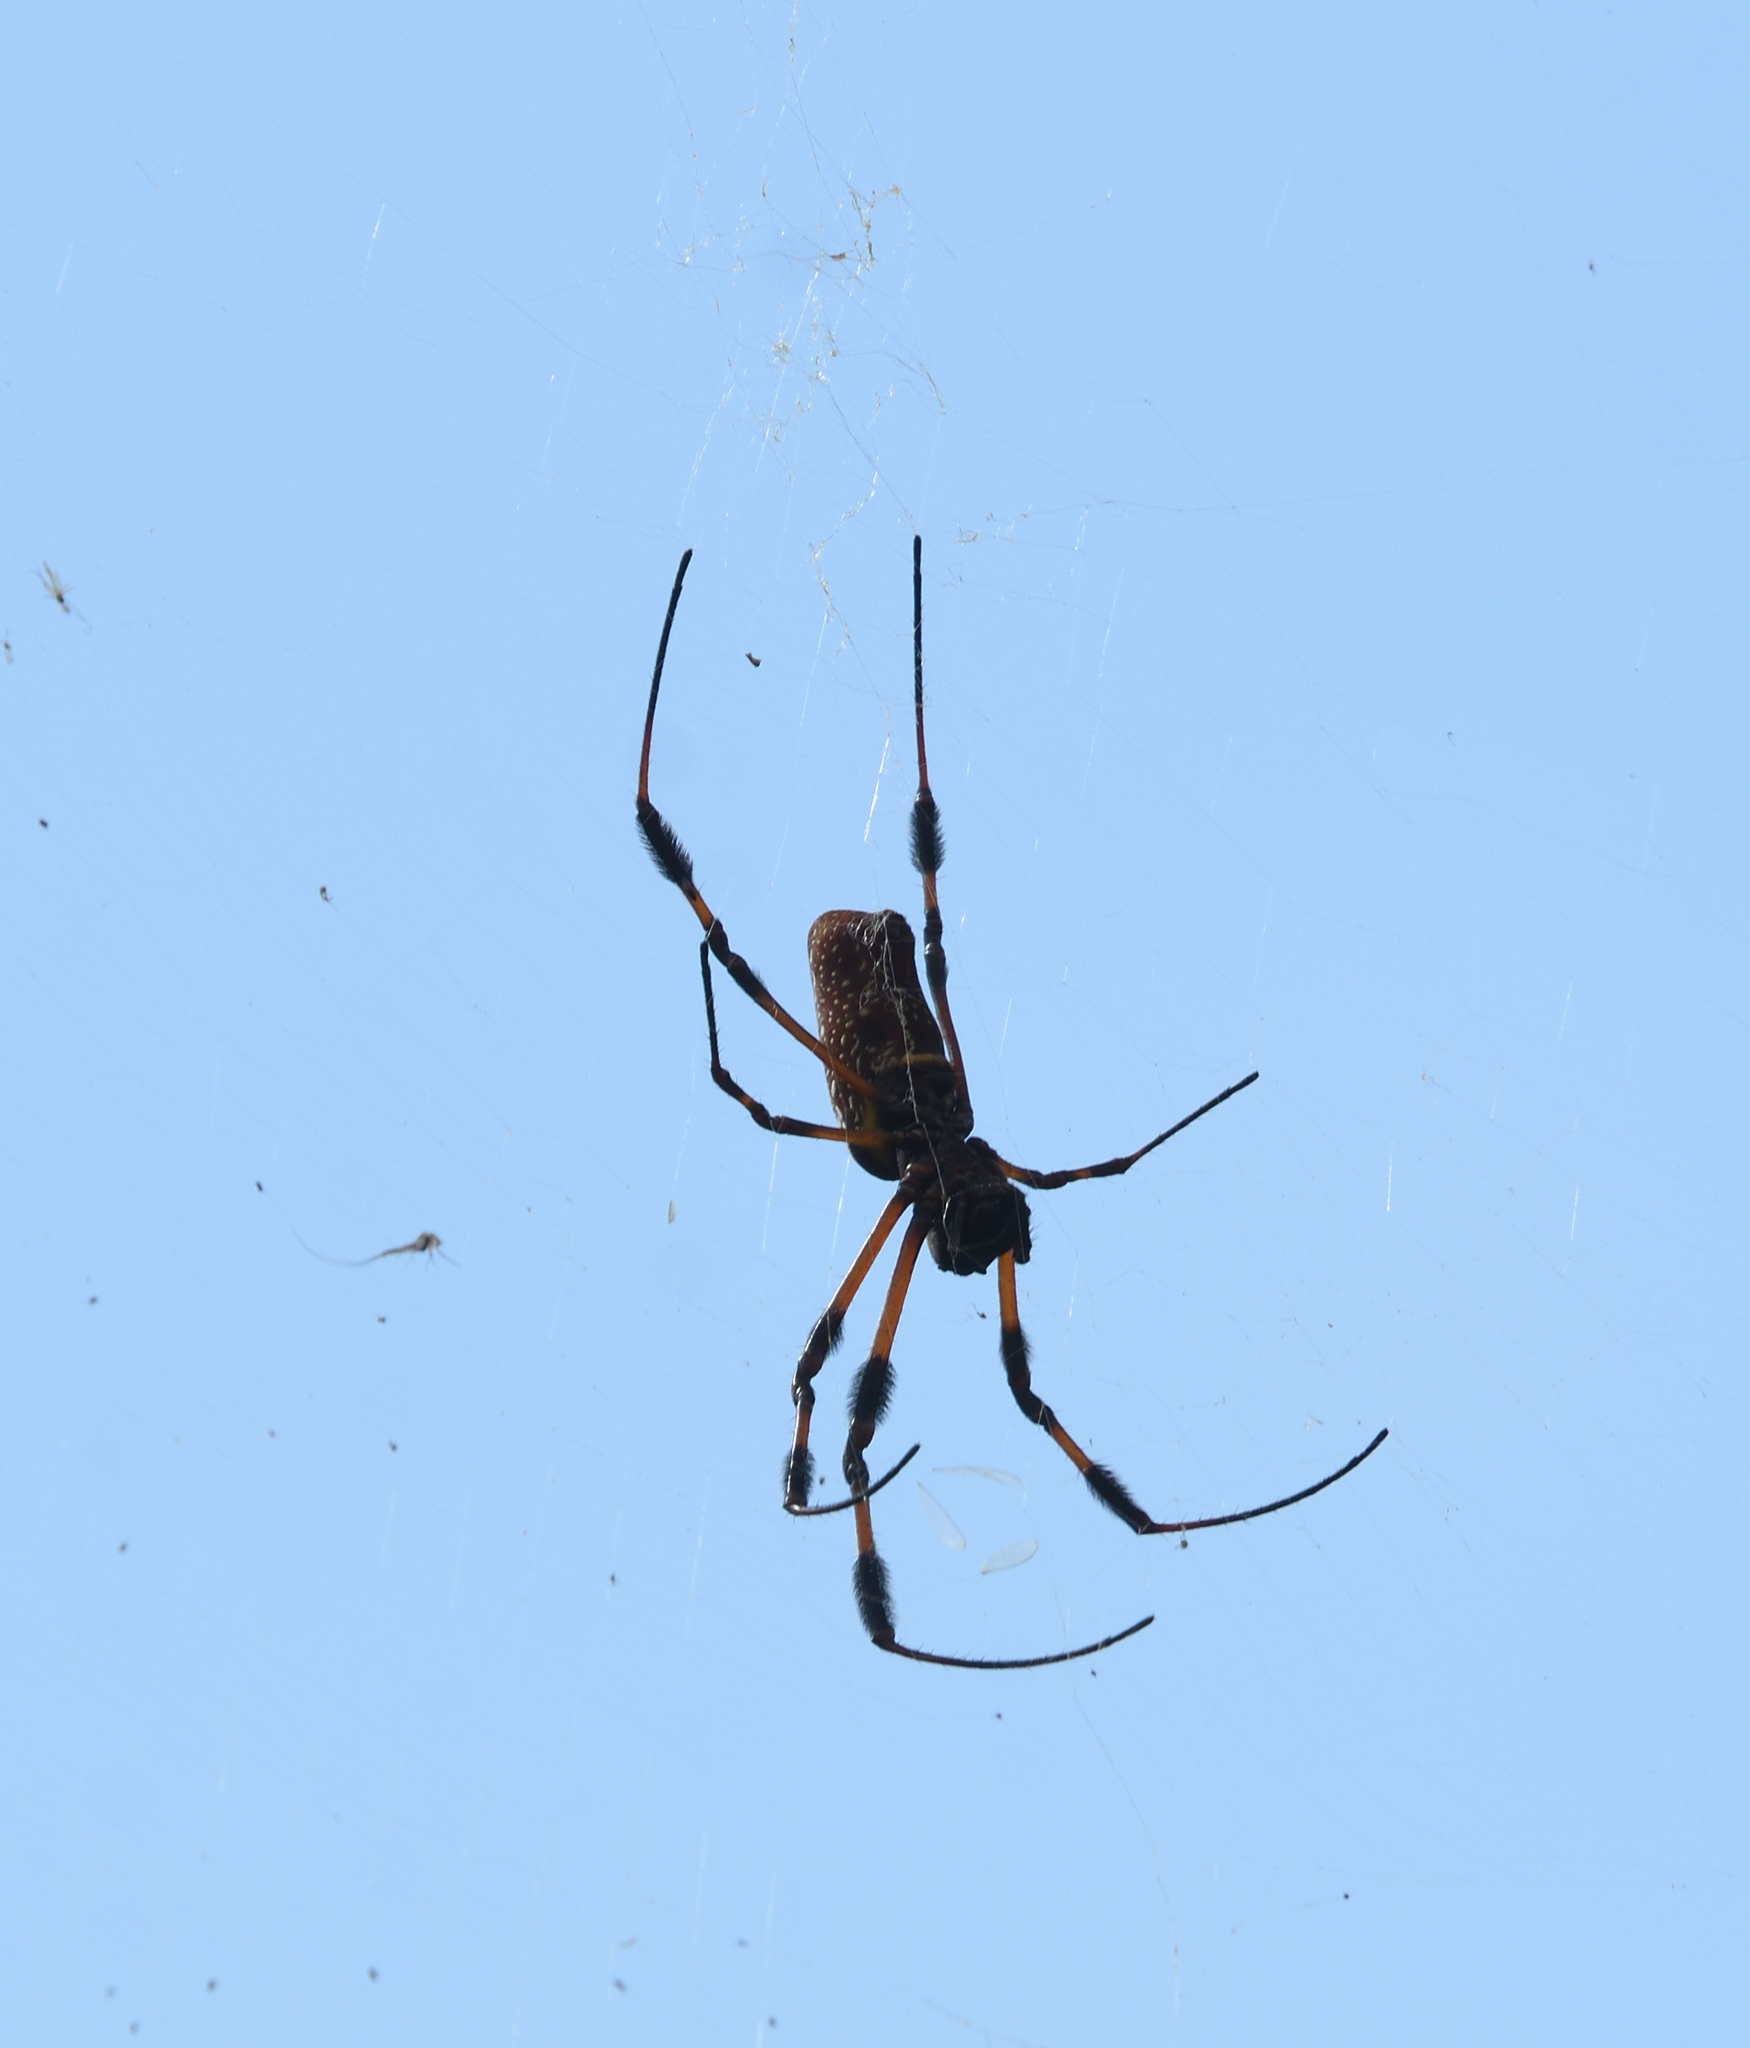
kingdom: Animalia
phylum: Arthropoda
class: Arachnida
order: Araneae
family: Araneidae
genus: Trichonephila
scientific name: Trichonephila clavipes
